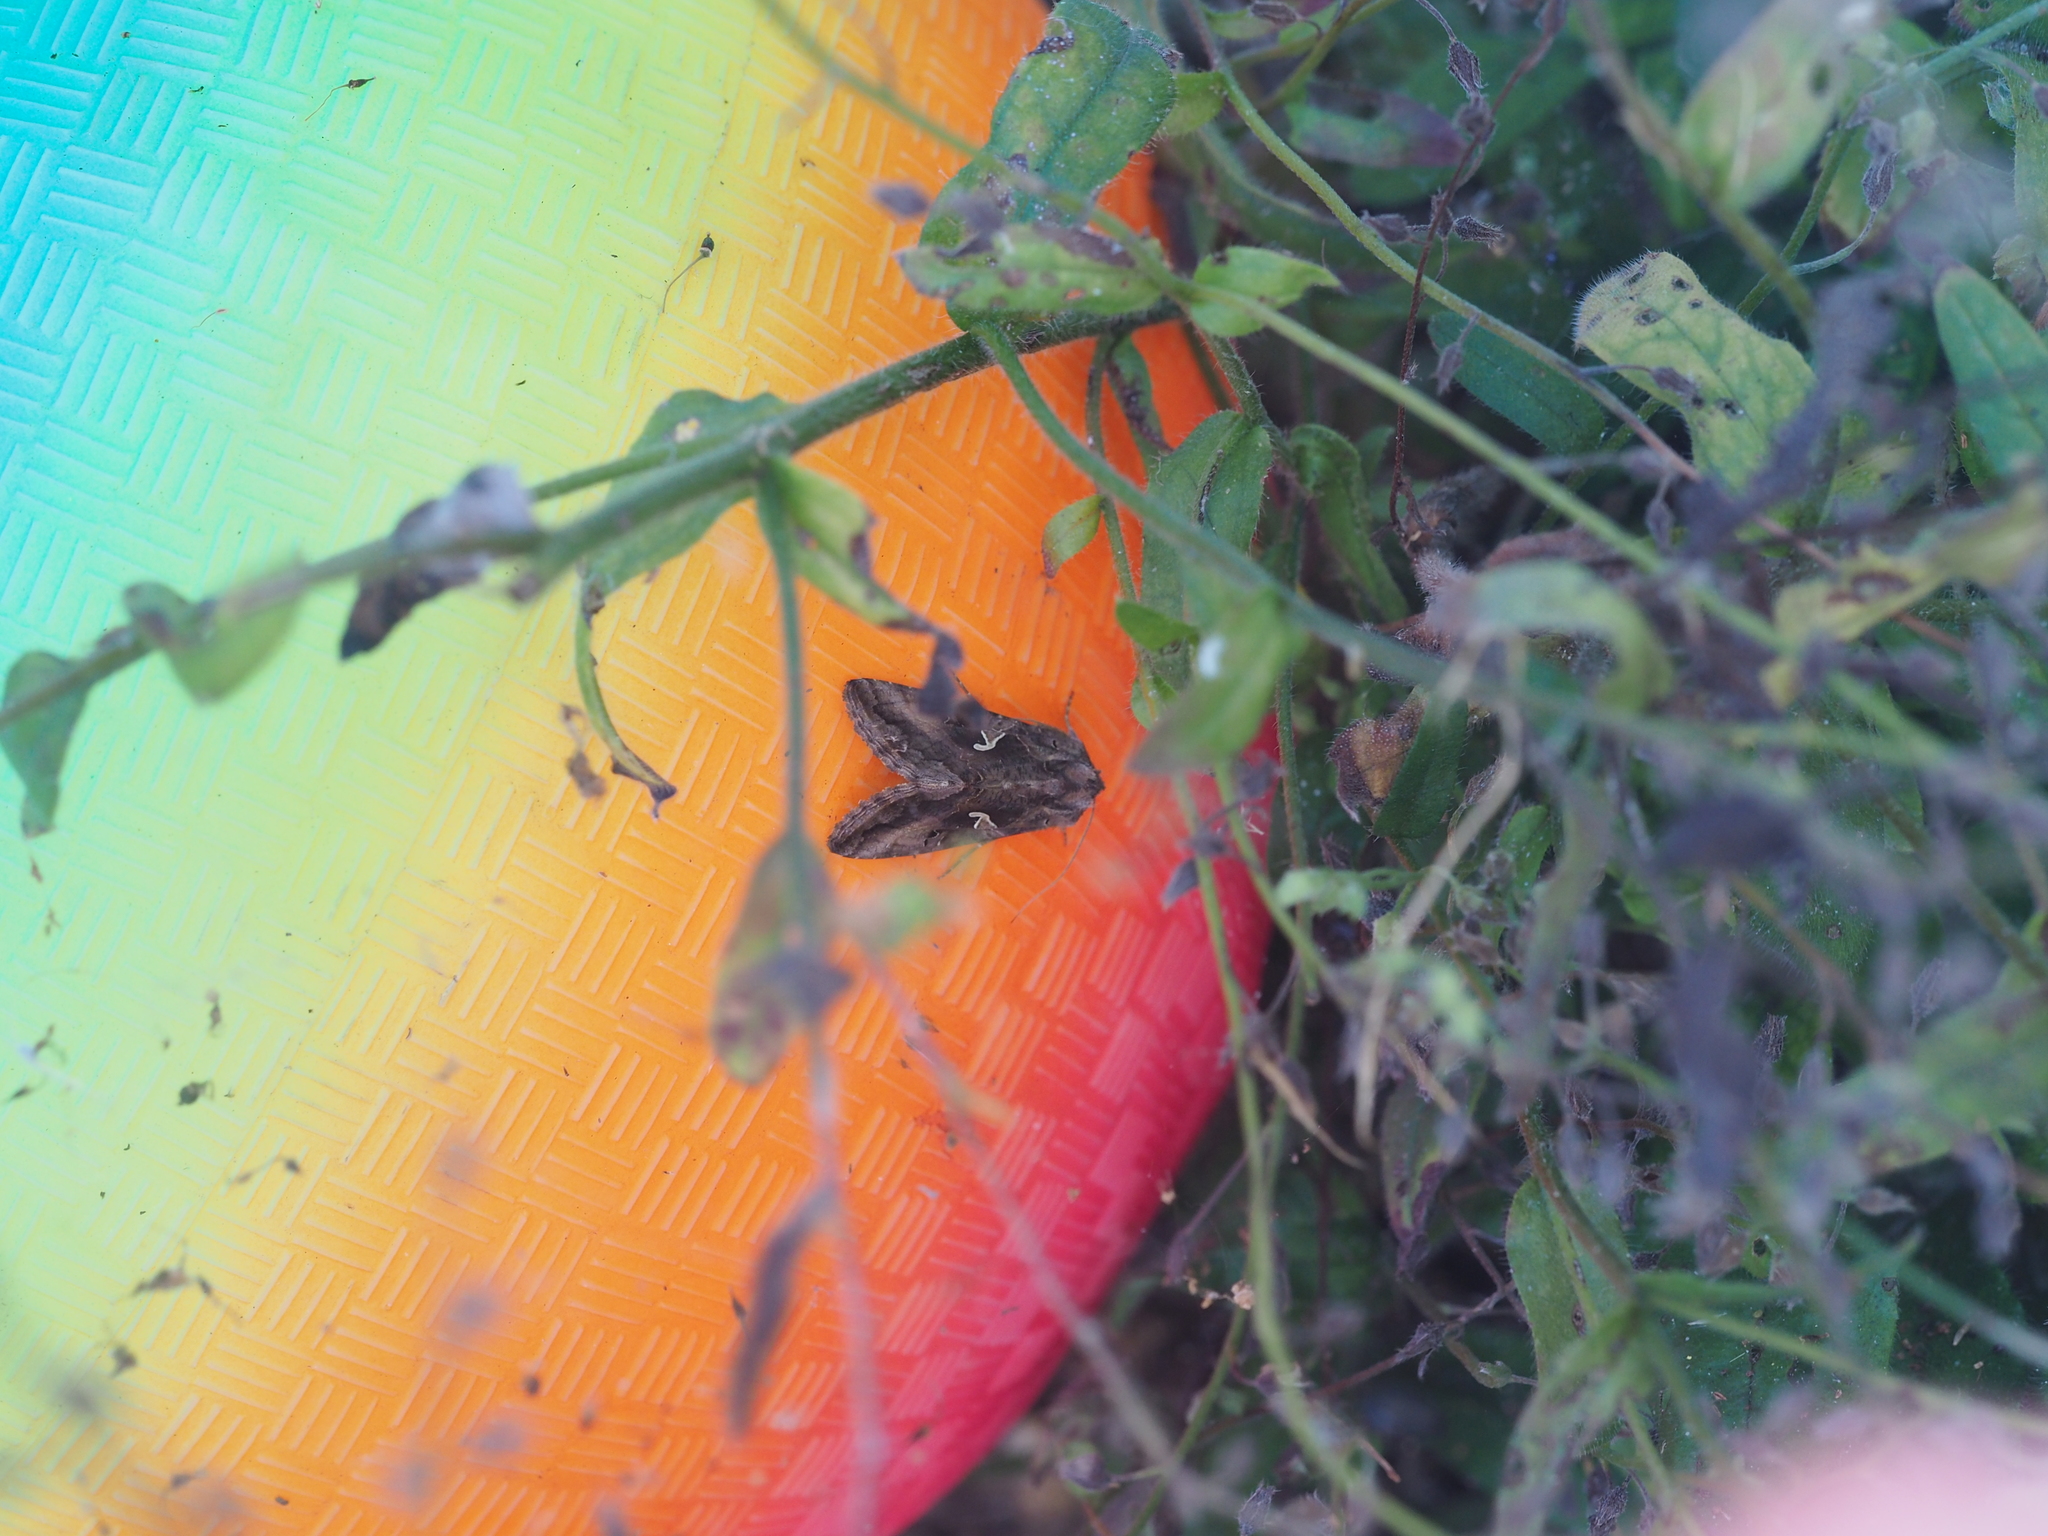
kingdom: Animalia
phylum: Arthropoda
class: Insecta
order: Lepidoptera
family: Noctuidae
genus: Autographa
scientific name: Autographa gamma
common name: Silver y
